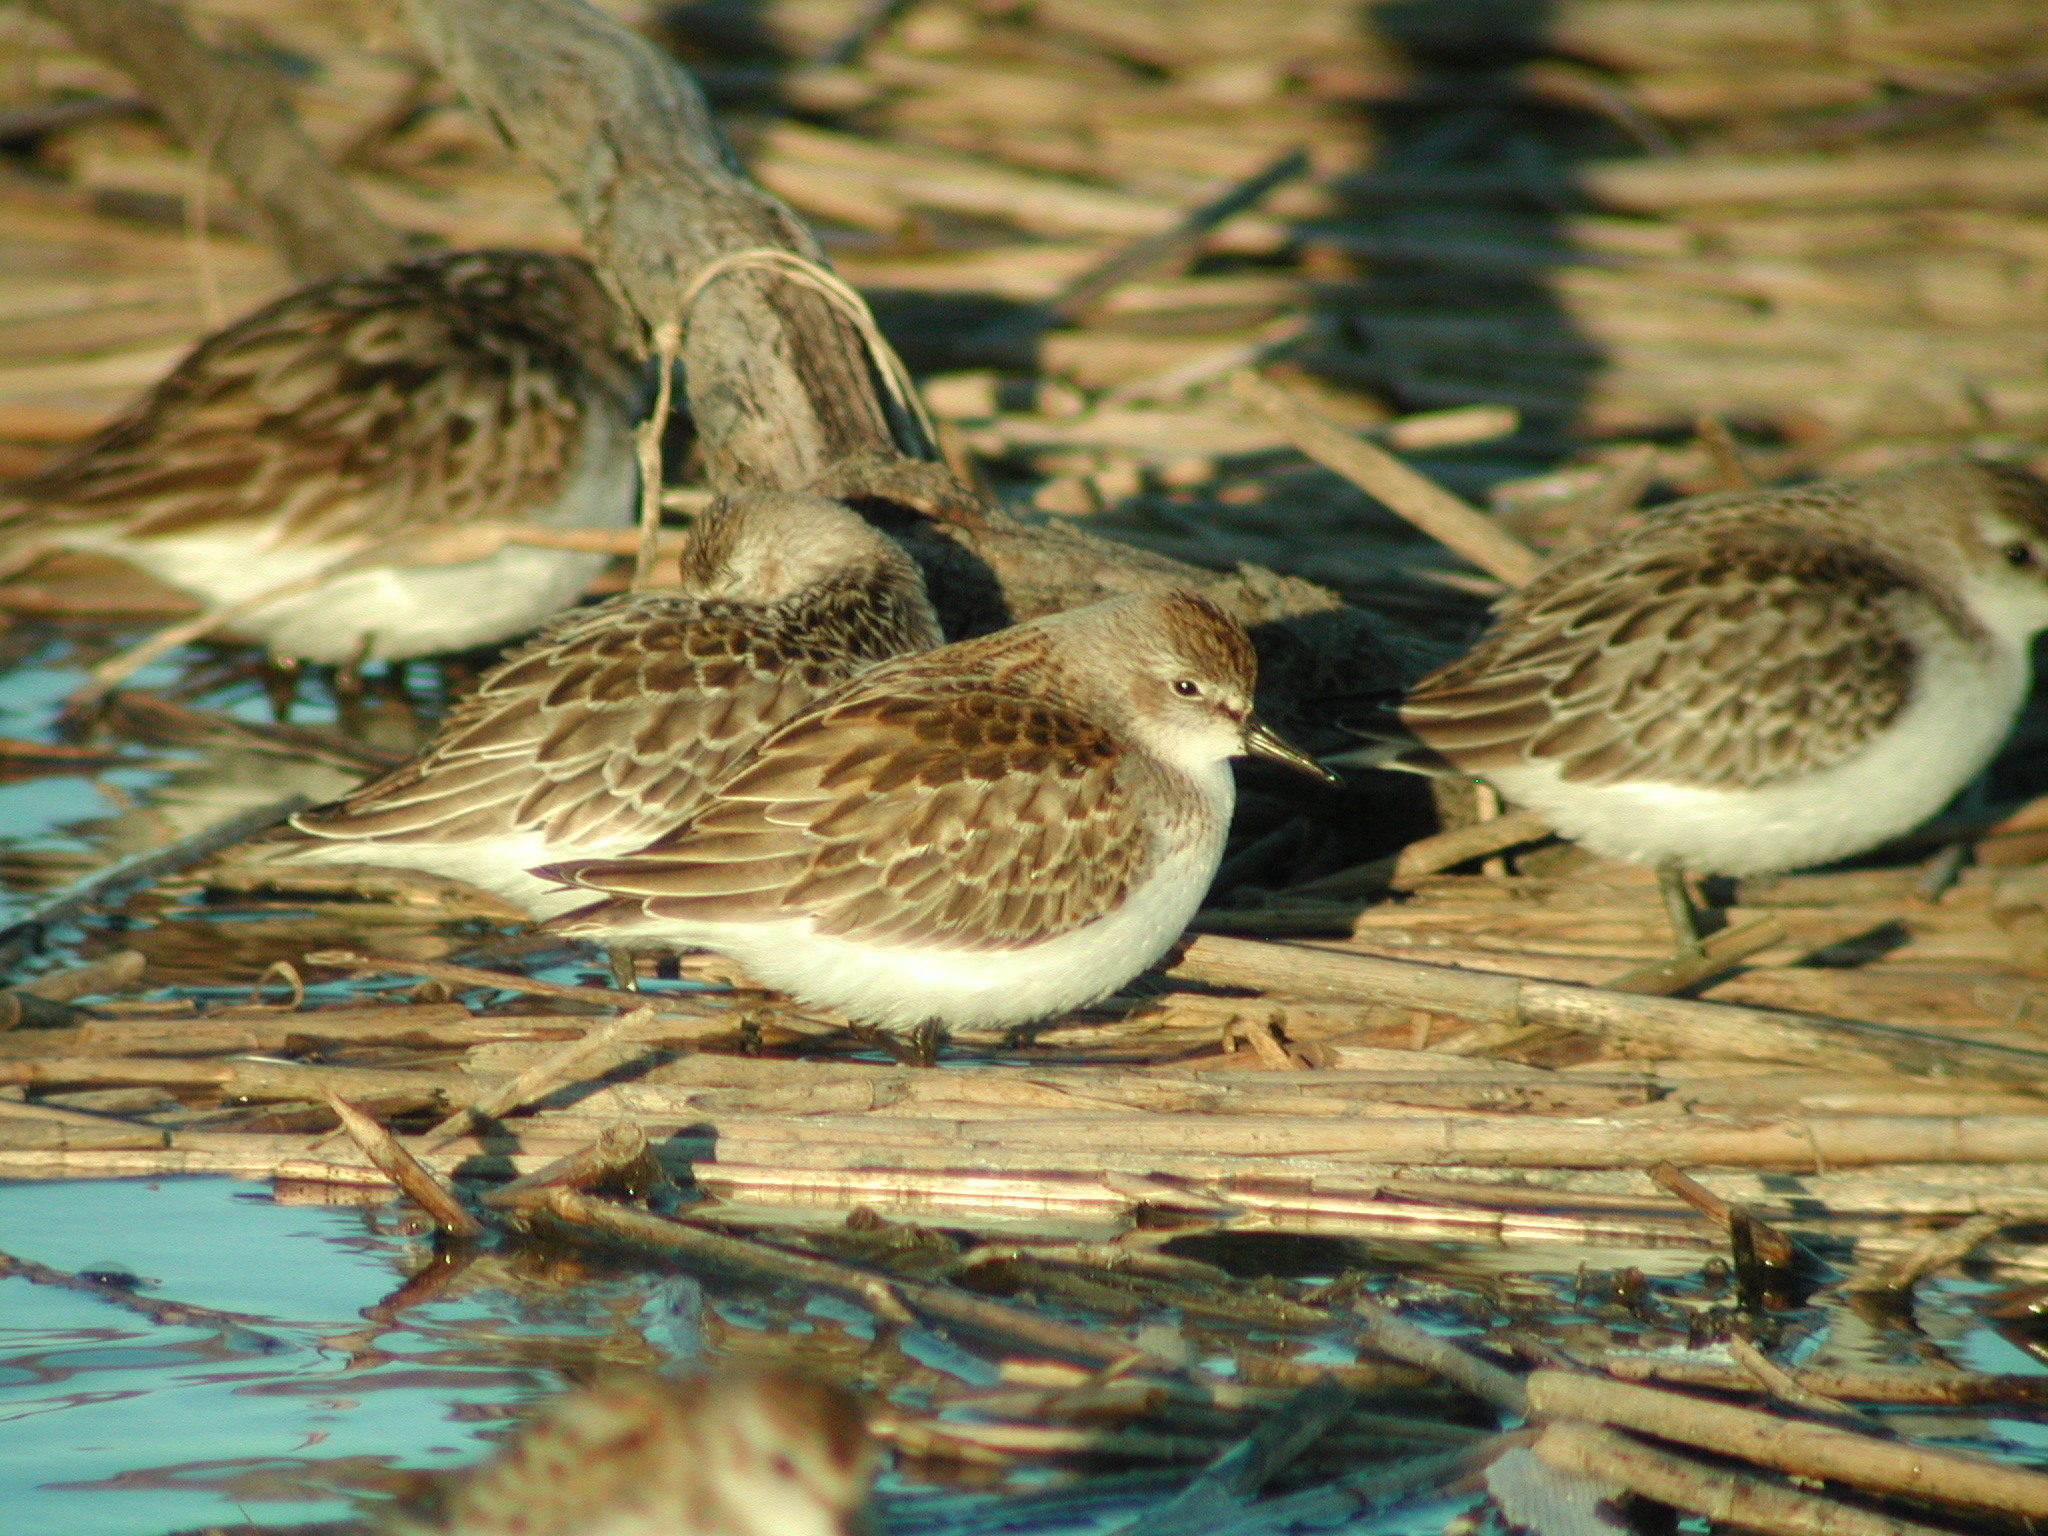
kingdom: Animalia
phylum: Chordata
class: Aves
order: Charadriiformes
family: Scolopacidae
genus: Calidris
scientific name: Calidris pusilla
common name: Semipalmated sandpiper
